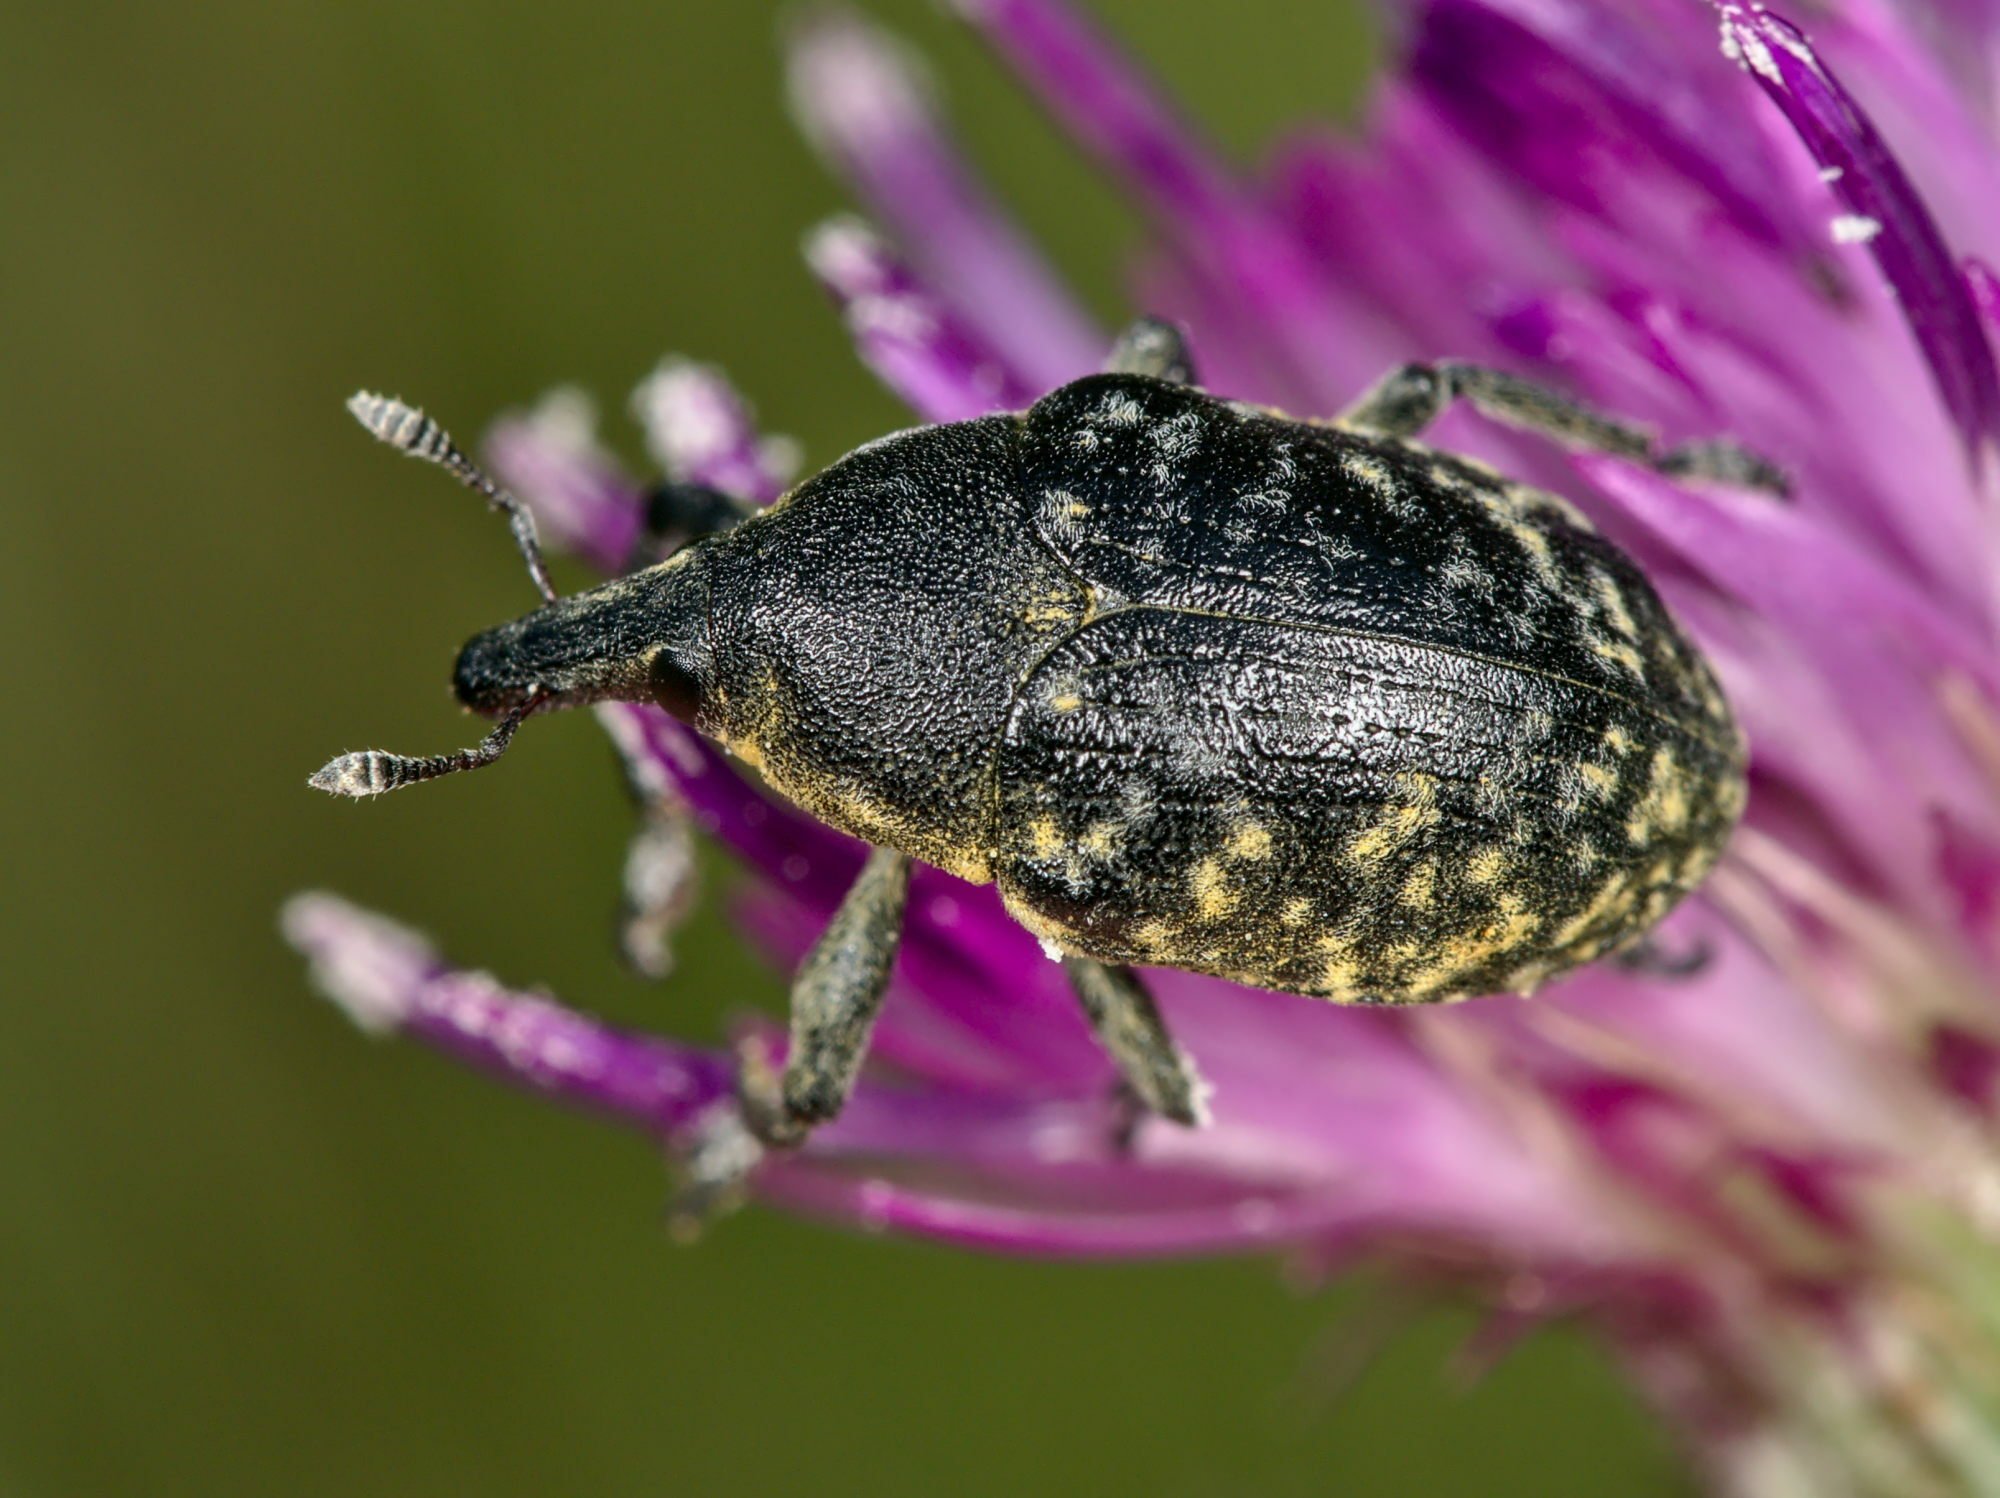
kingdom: Animalia
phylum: Arthropoda
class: Insecta
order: Coleoptera
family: Curculionidae
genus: Larinus
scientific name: Larinus turbinatus
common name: Weevil
